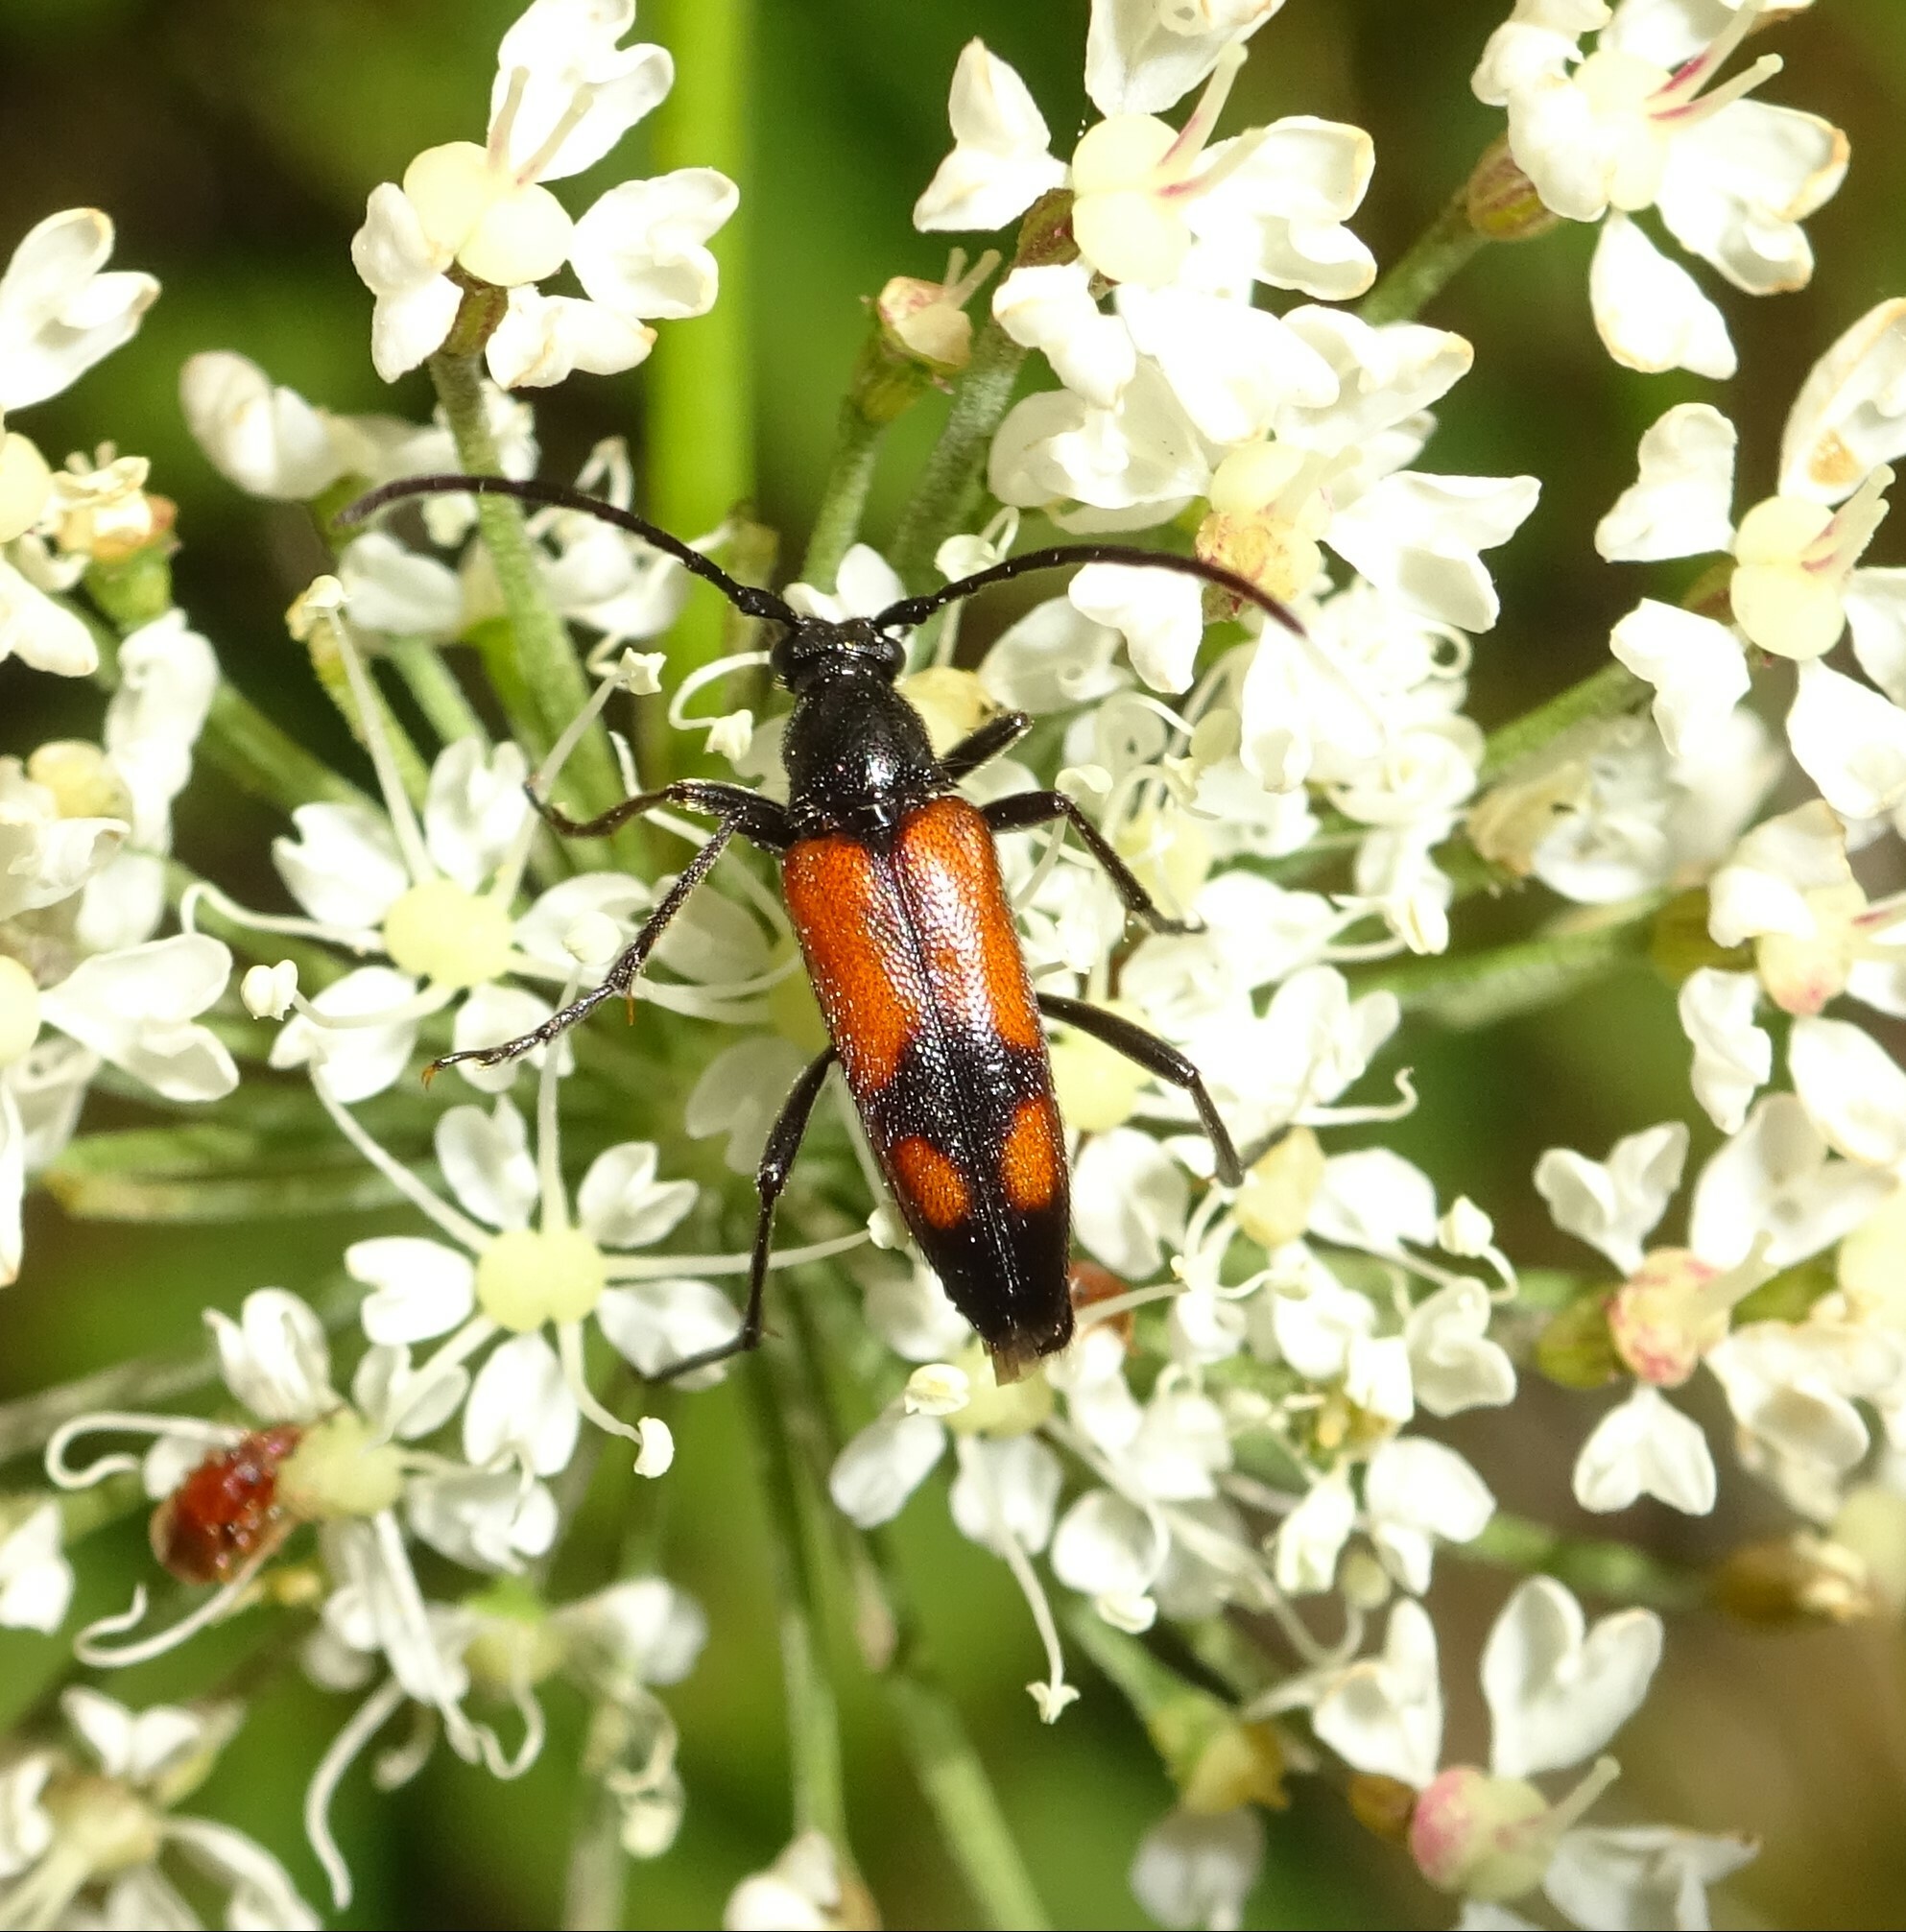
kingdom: Animalia
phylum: Arthropoda
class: Insecta
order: Coleoptera
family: Cerambycidae
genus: Stenurella
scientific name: Stenurella bifasciata
